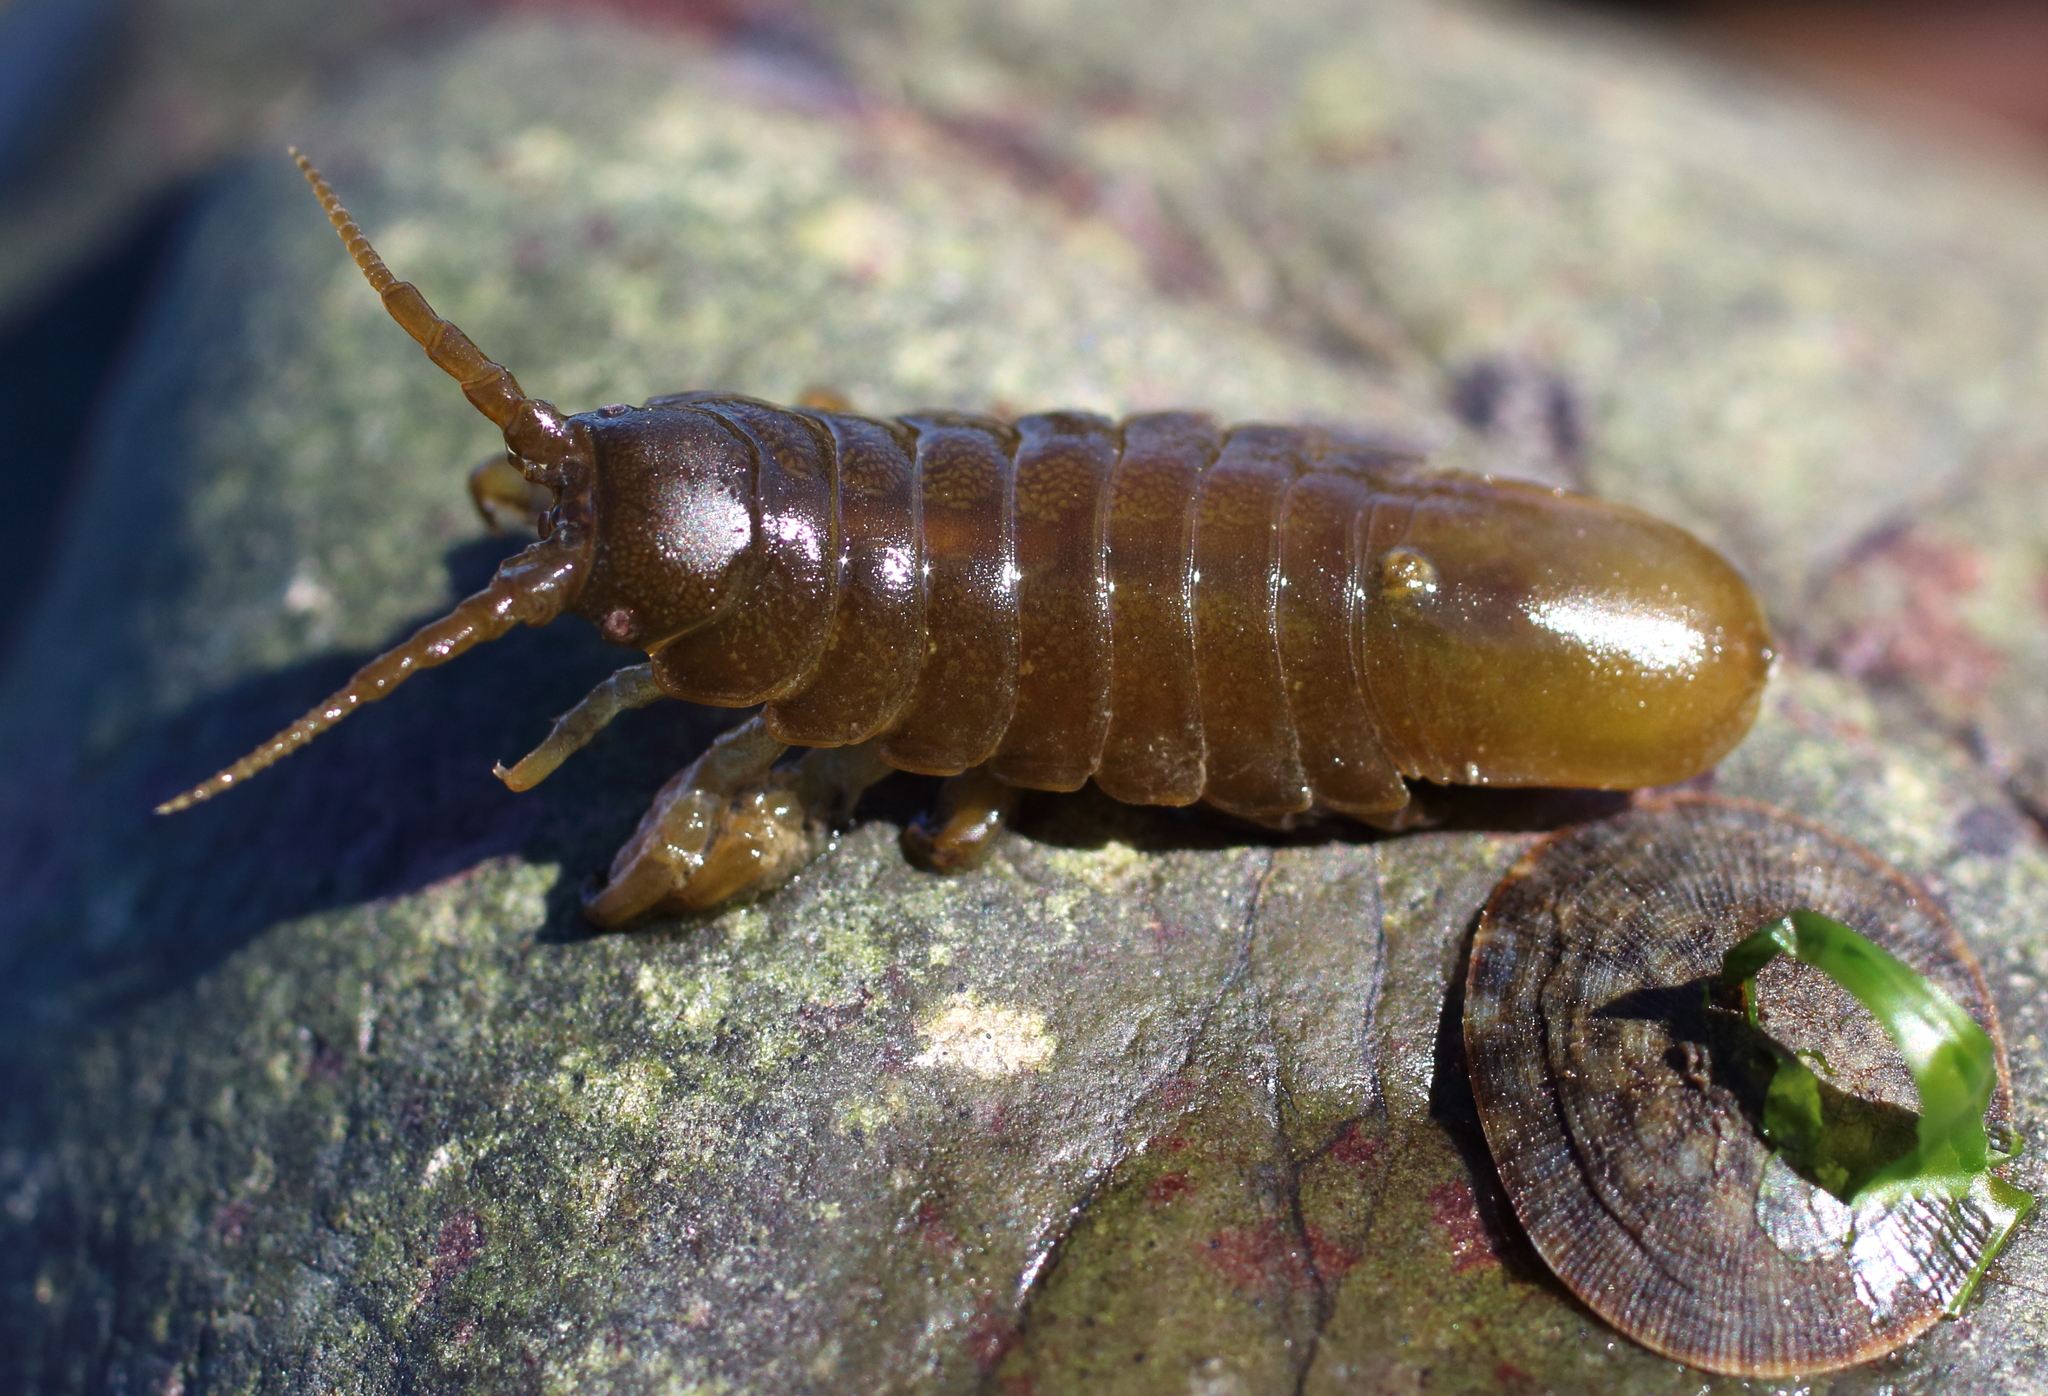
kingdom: Animalia
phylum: Arthropoda
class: Malacostraca
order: Isopoda
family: Idoteidae
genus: Pentidotea
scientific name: Pentidotea wosnesenskii
